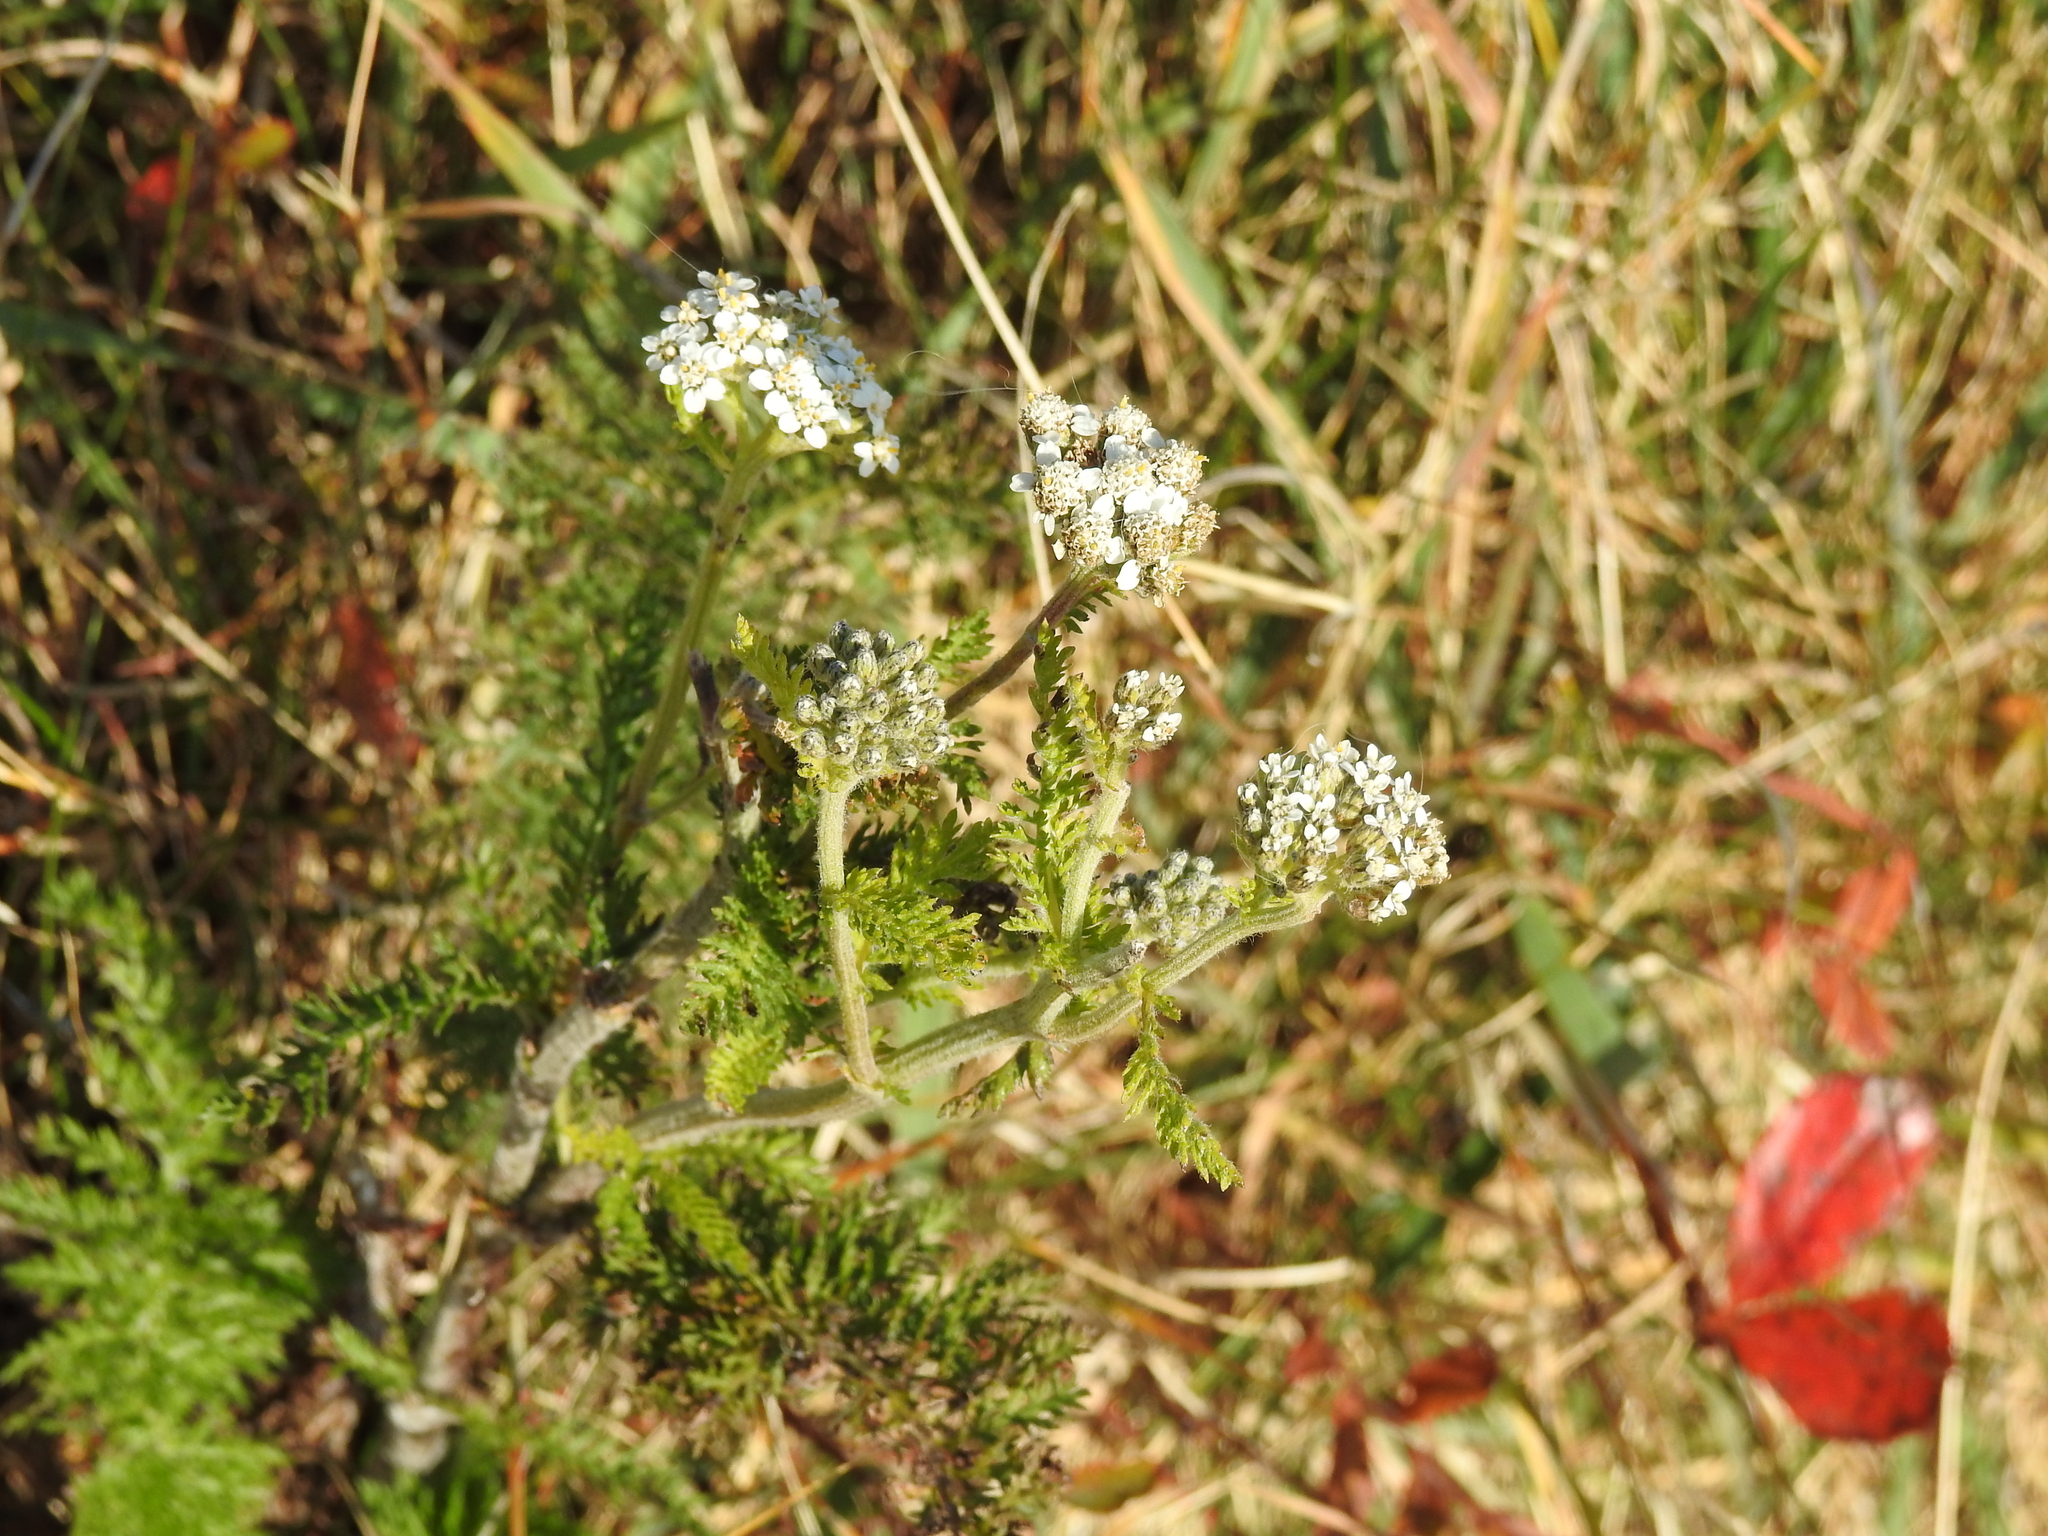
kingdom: Plantae
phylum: Tracheophyta
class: Magnoliopsida
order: Asterales
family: Asteraceae
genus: Achillea
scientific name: Achillea millefolium
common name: Yarrow
